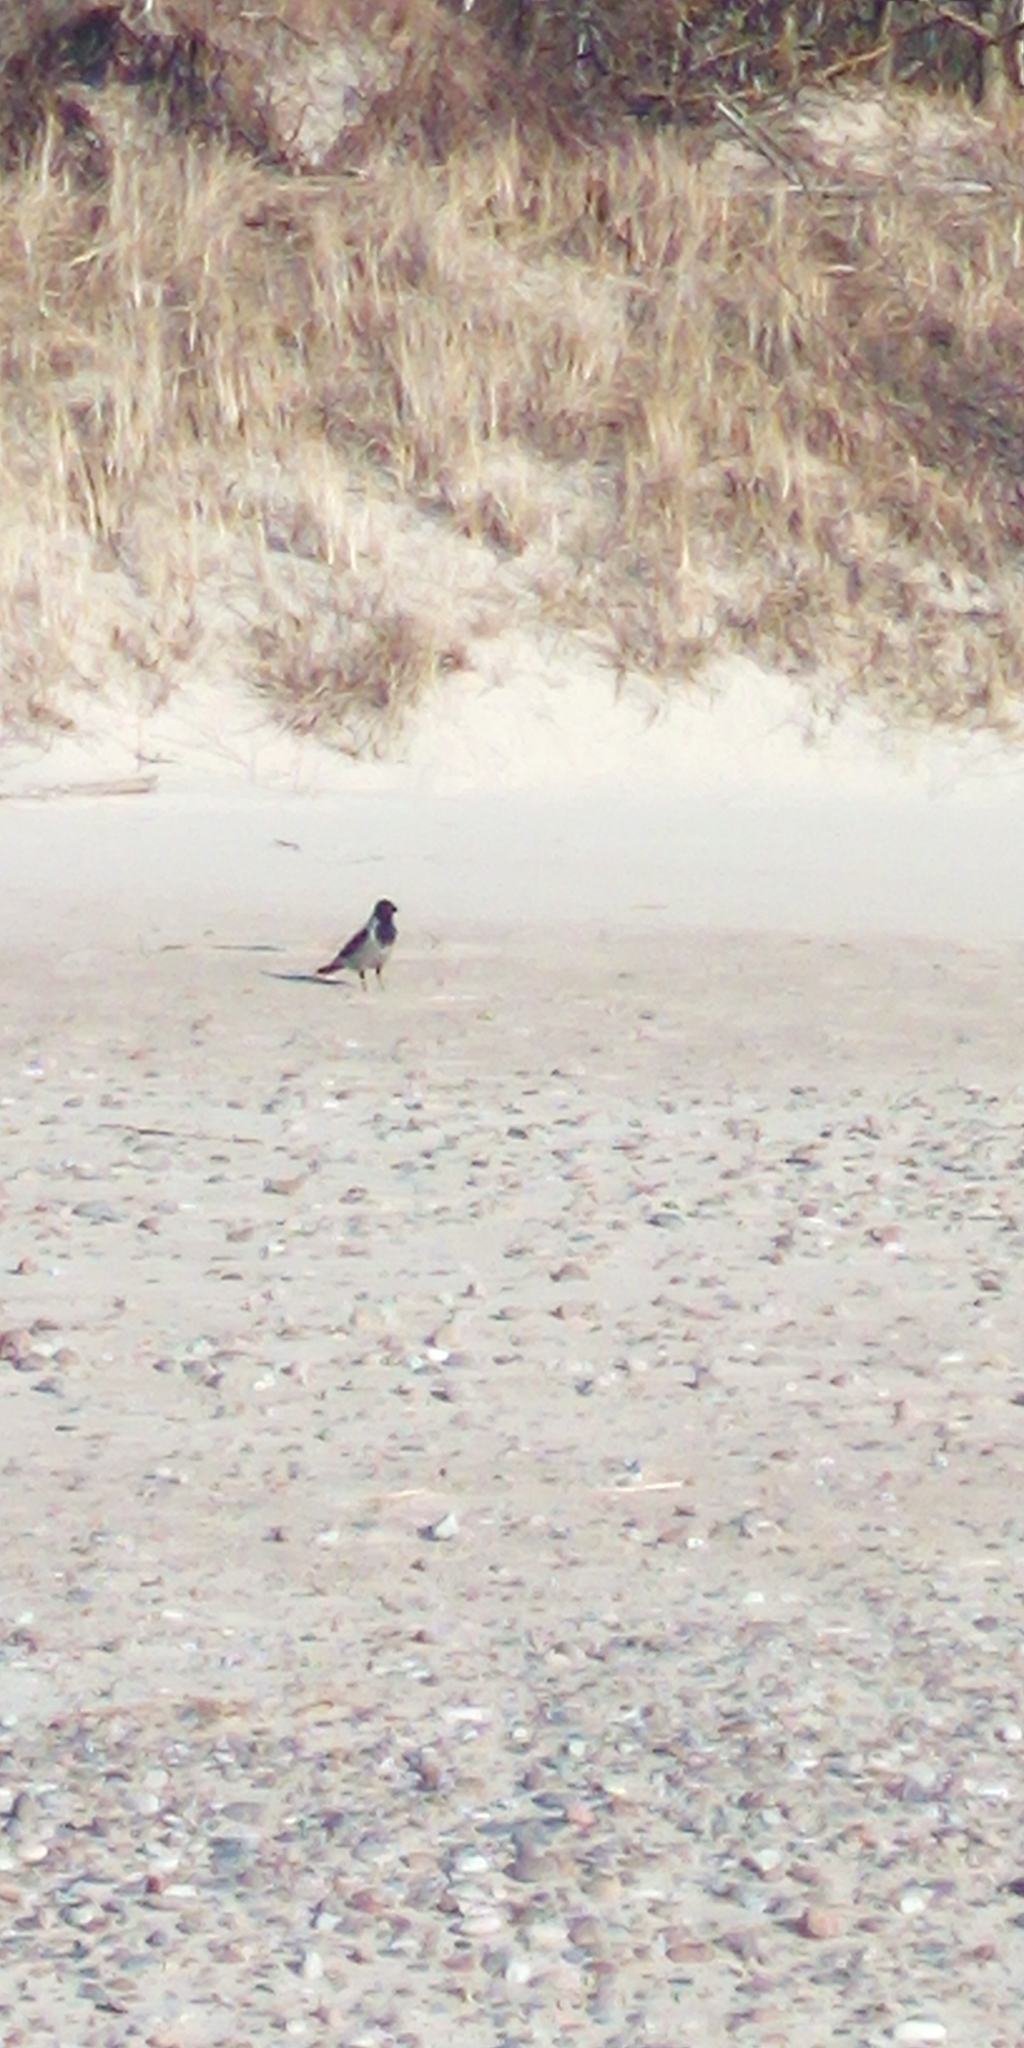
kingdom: Animalia
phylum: Chordata
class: Aves
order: Passeriformes
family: Corvidae
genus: Corvus
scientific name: Corvus cornix
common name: Hooded crow
